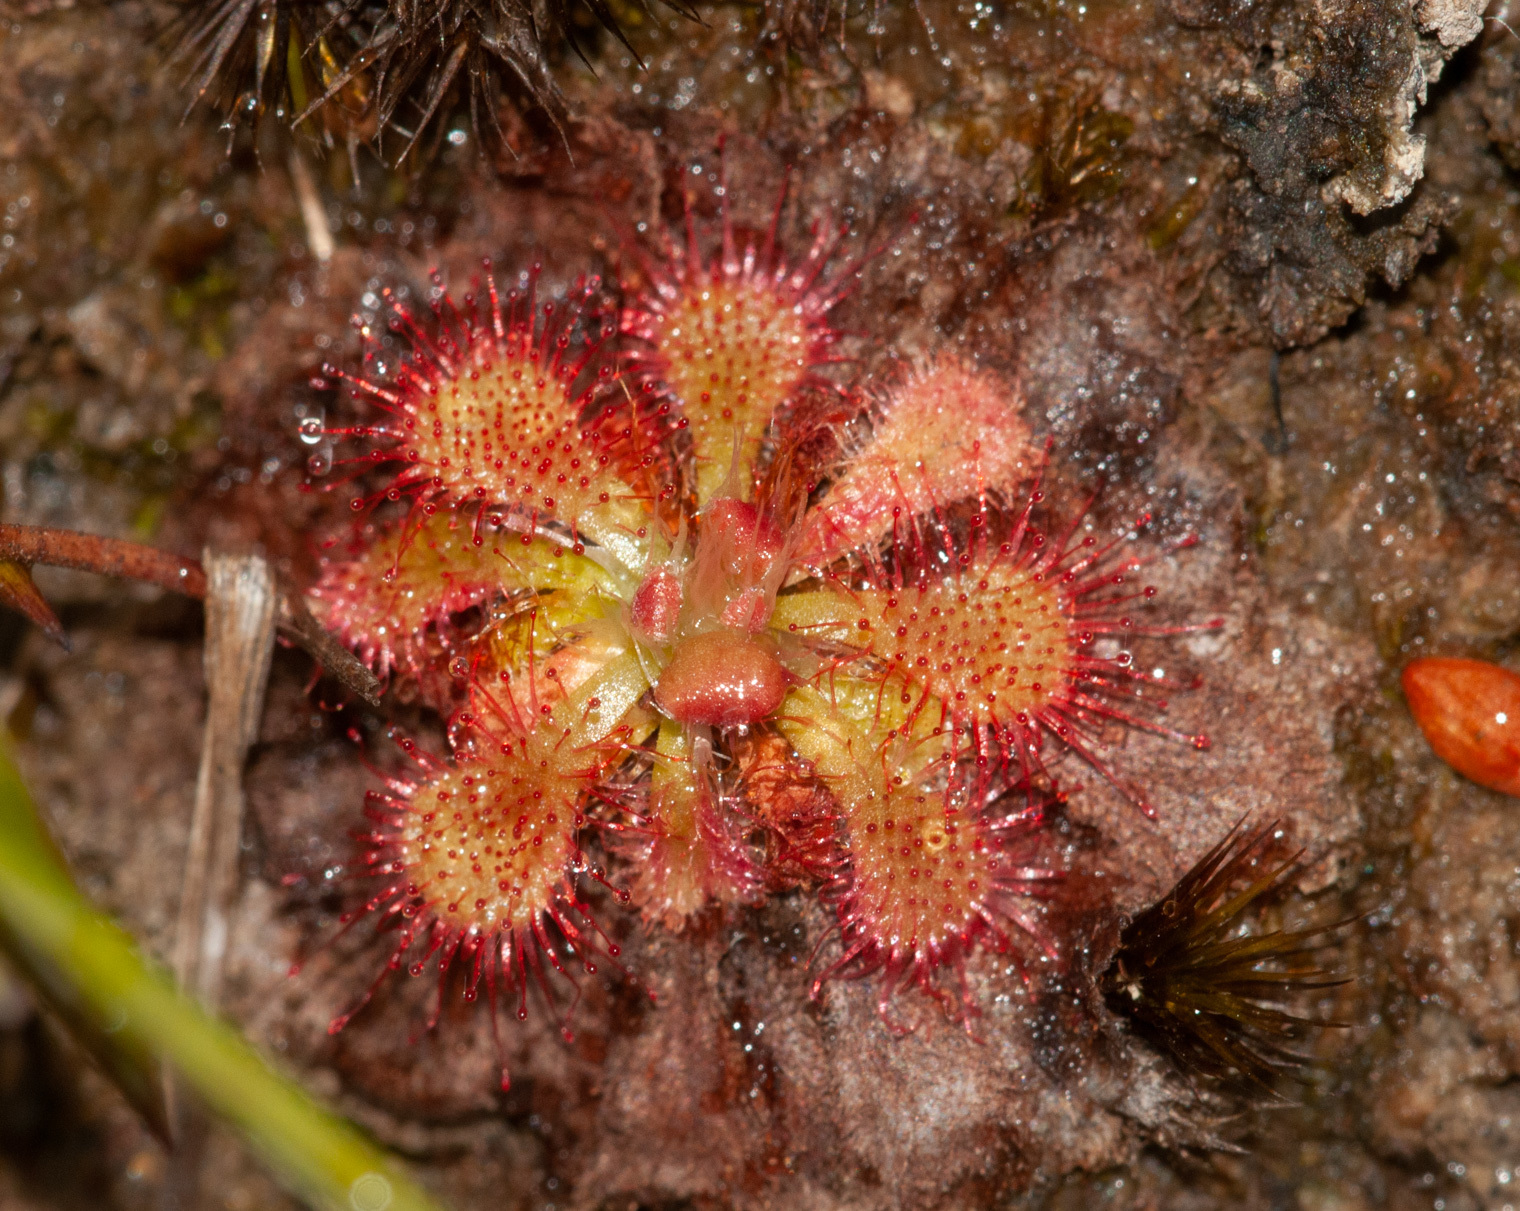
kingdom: Plantae
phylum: Tracheophyta
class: Magnoliopsida
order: Caryophyllales
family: Droseraceae
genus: Drosera
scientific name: Drosera spatulata
